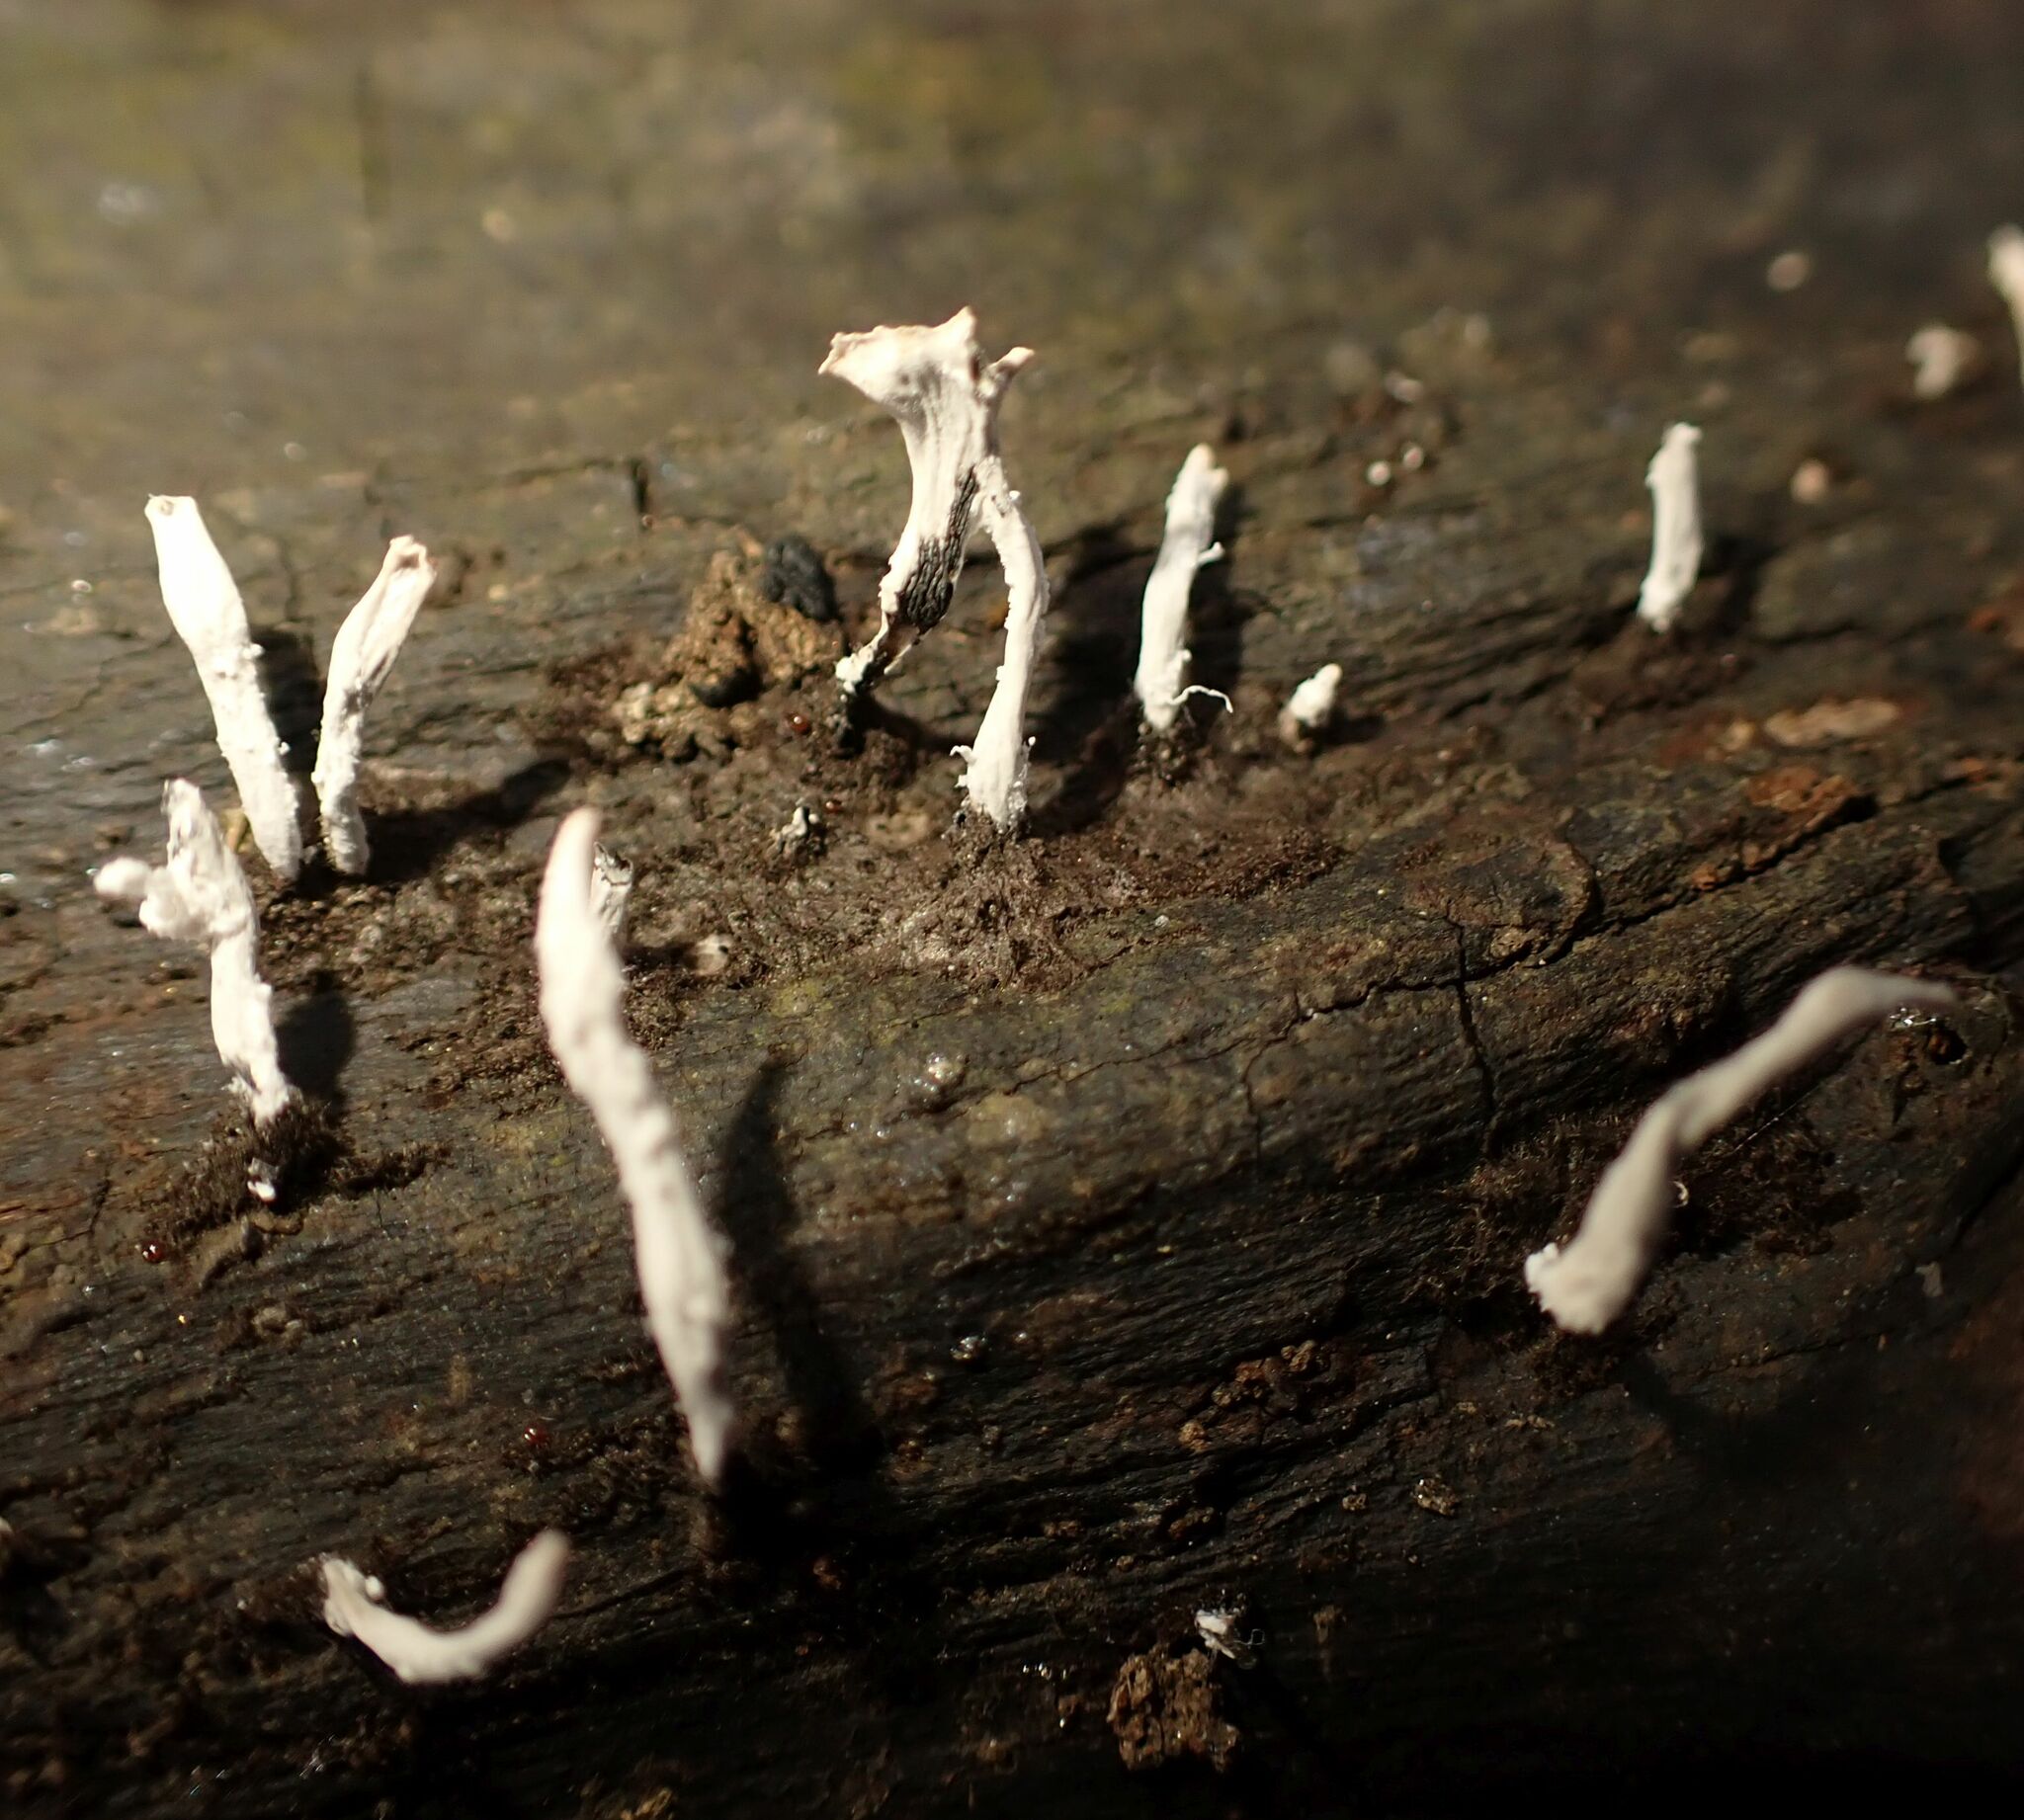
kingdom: Fungi
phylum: Ascomycota
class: Sordariomycetes
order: Xylariales
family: Xylariaceae
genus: Xylaria
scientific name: Xylaria hypoxylon
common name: Candle-snuff fungus
